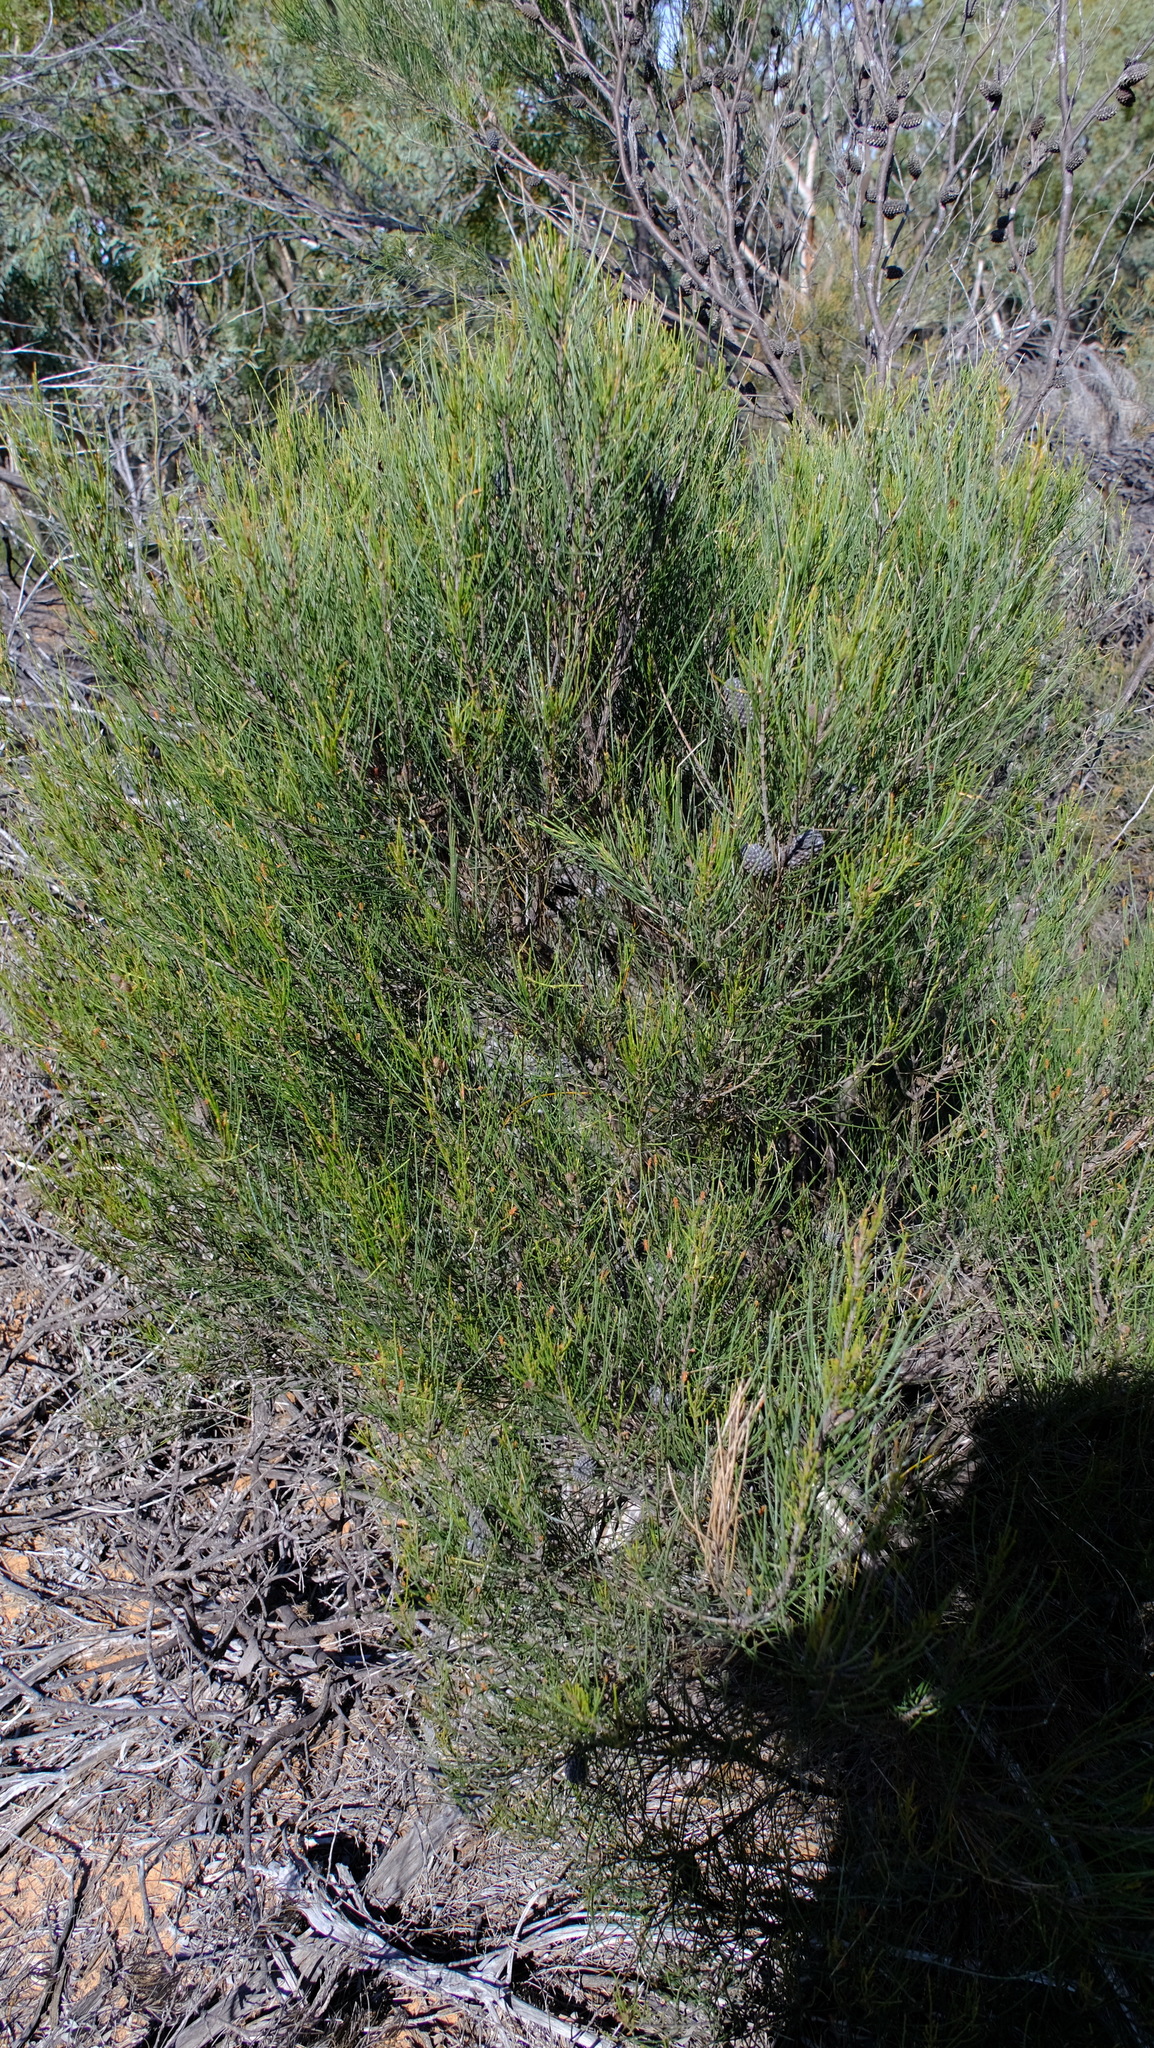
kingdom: Plantae
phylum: Tracheophyta
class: Magnoliopsida
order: Fagales
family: Casuarinaceae
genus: Allocasuarina
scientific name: Allocasuarina campestris
